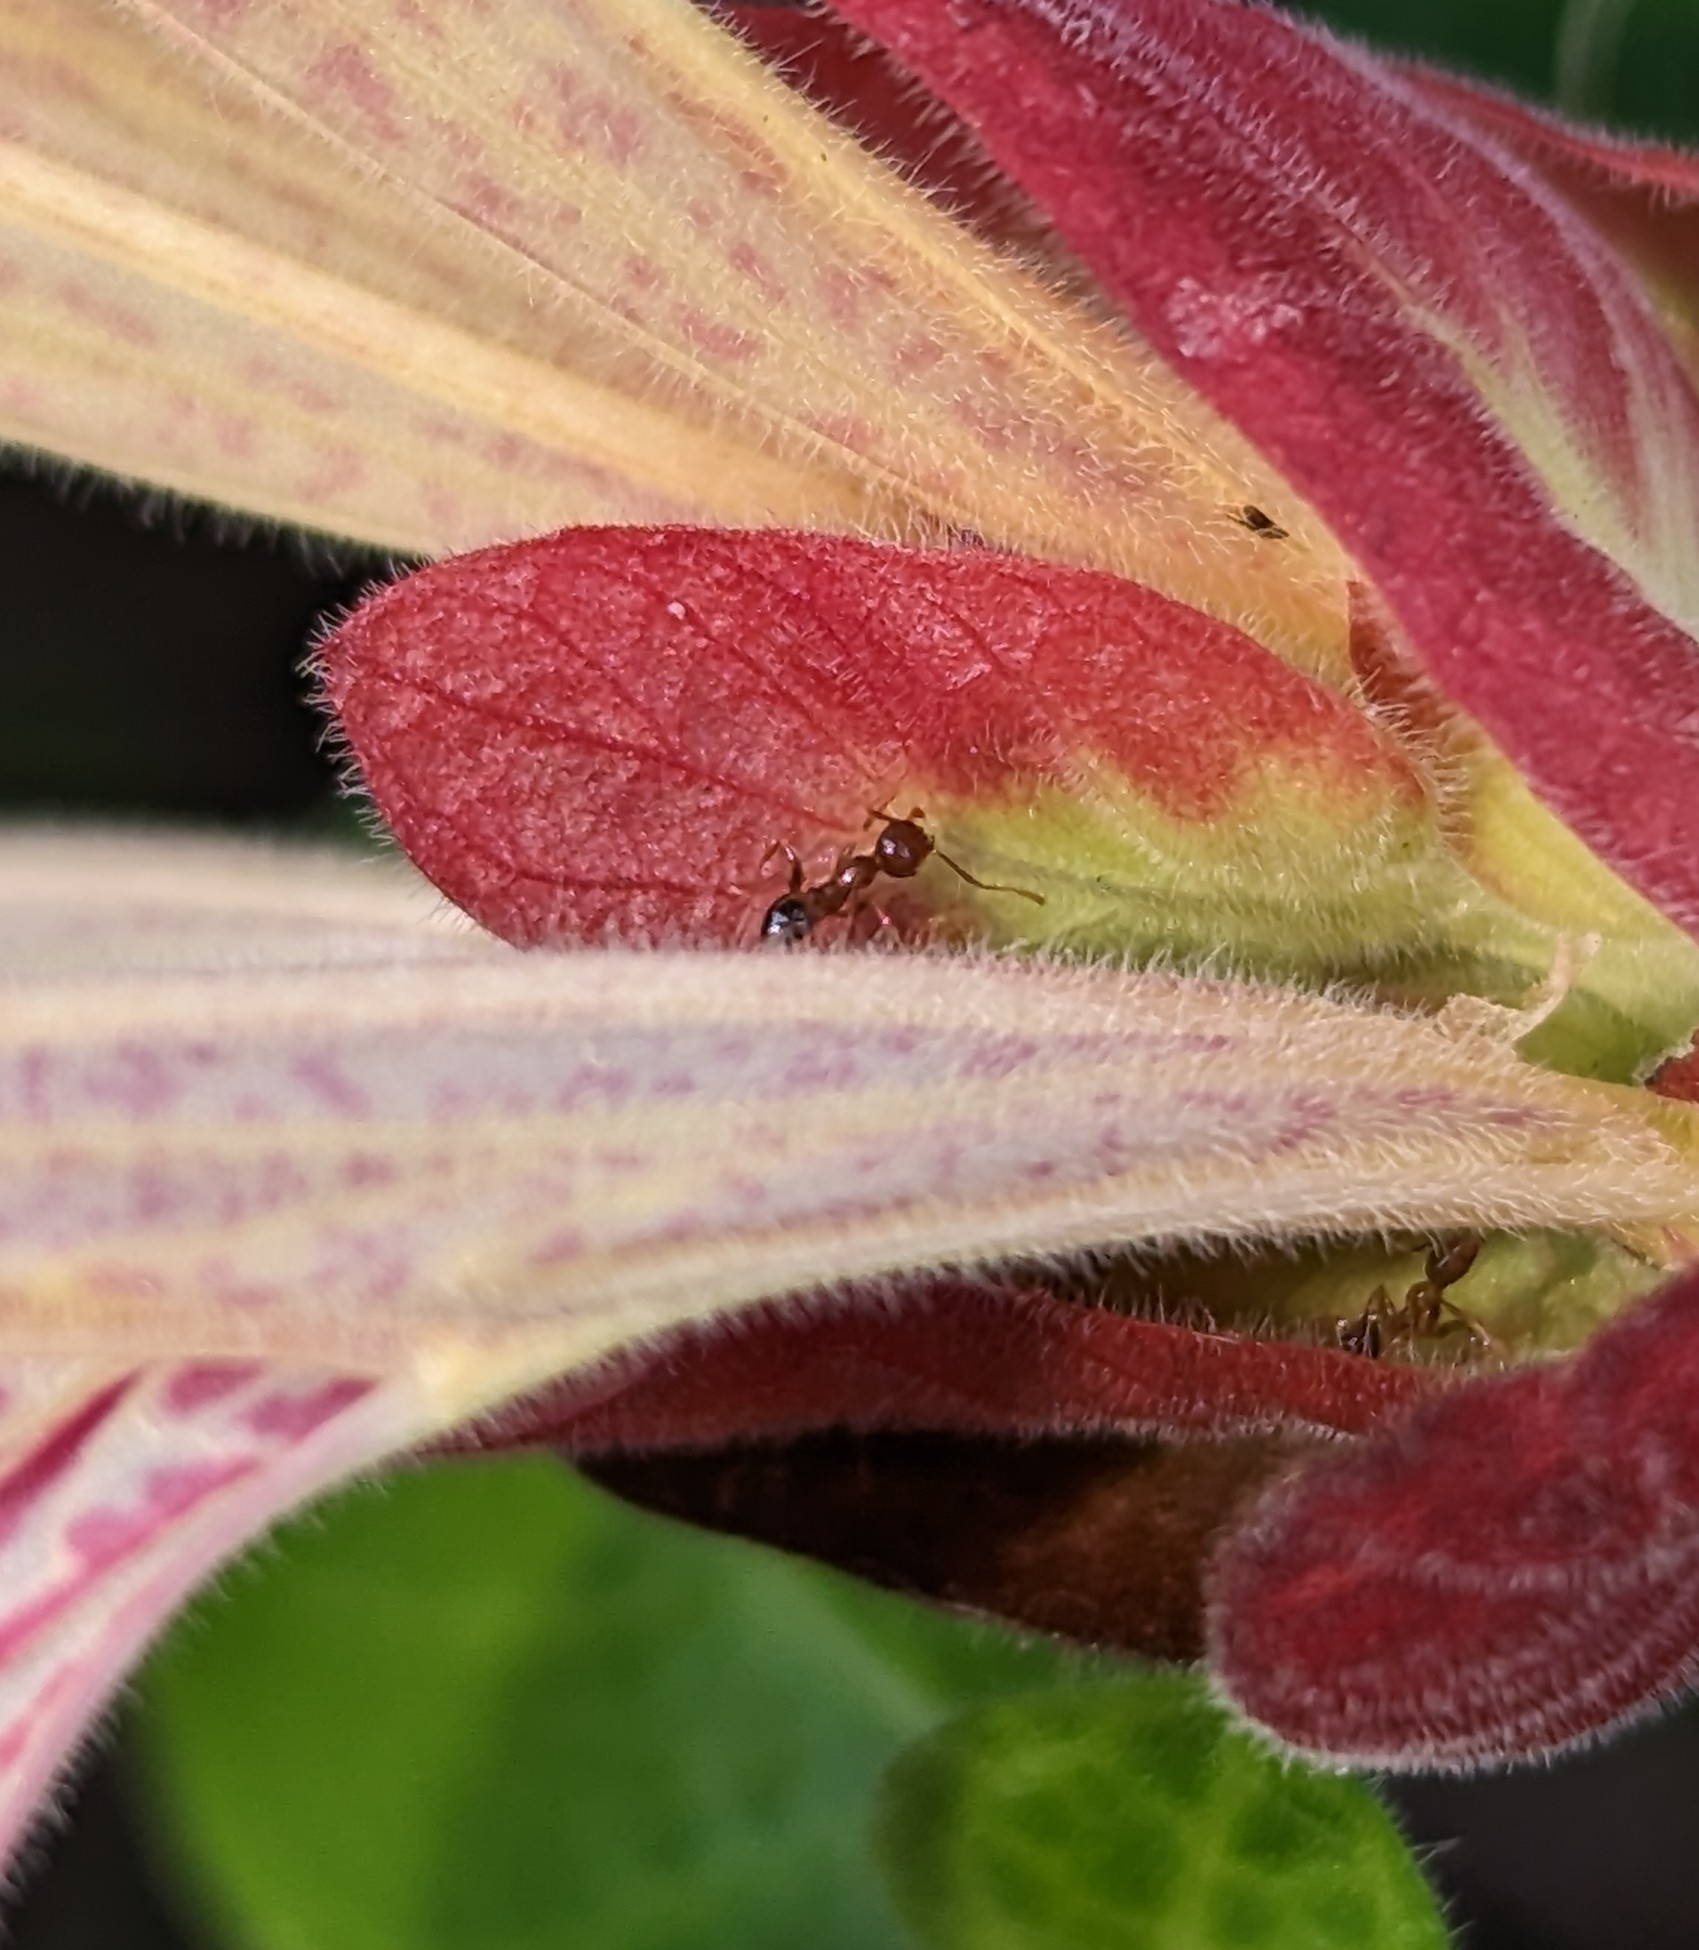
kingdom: Animalia
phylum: Arthropoda
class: Insecta
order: Hymenoptera
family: Formicidae
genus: Pheidole
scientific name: Pheidole megacephala
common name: Bigheaded ant
